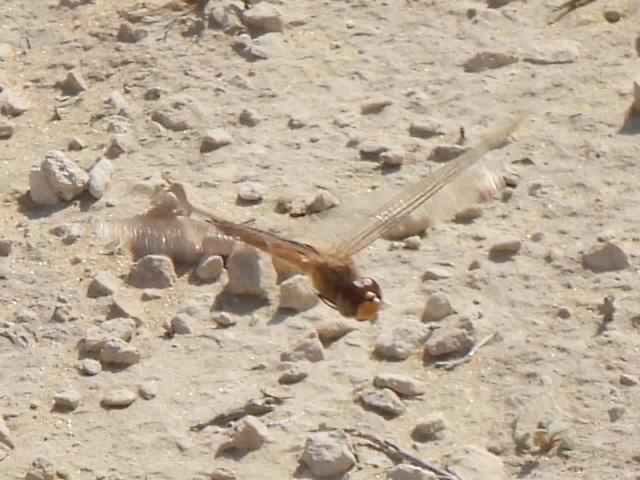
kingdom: Animalia
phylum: Arthropoda
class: Insecta
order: Odonata
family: Libellulidae
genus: Pantala
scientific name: Pantala flavescens
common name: Wandering glider
